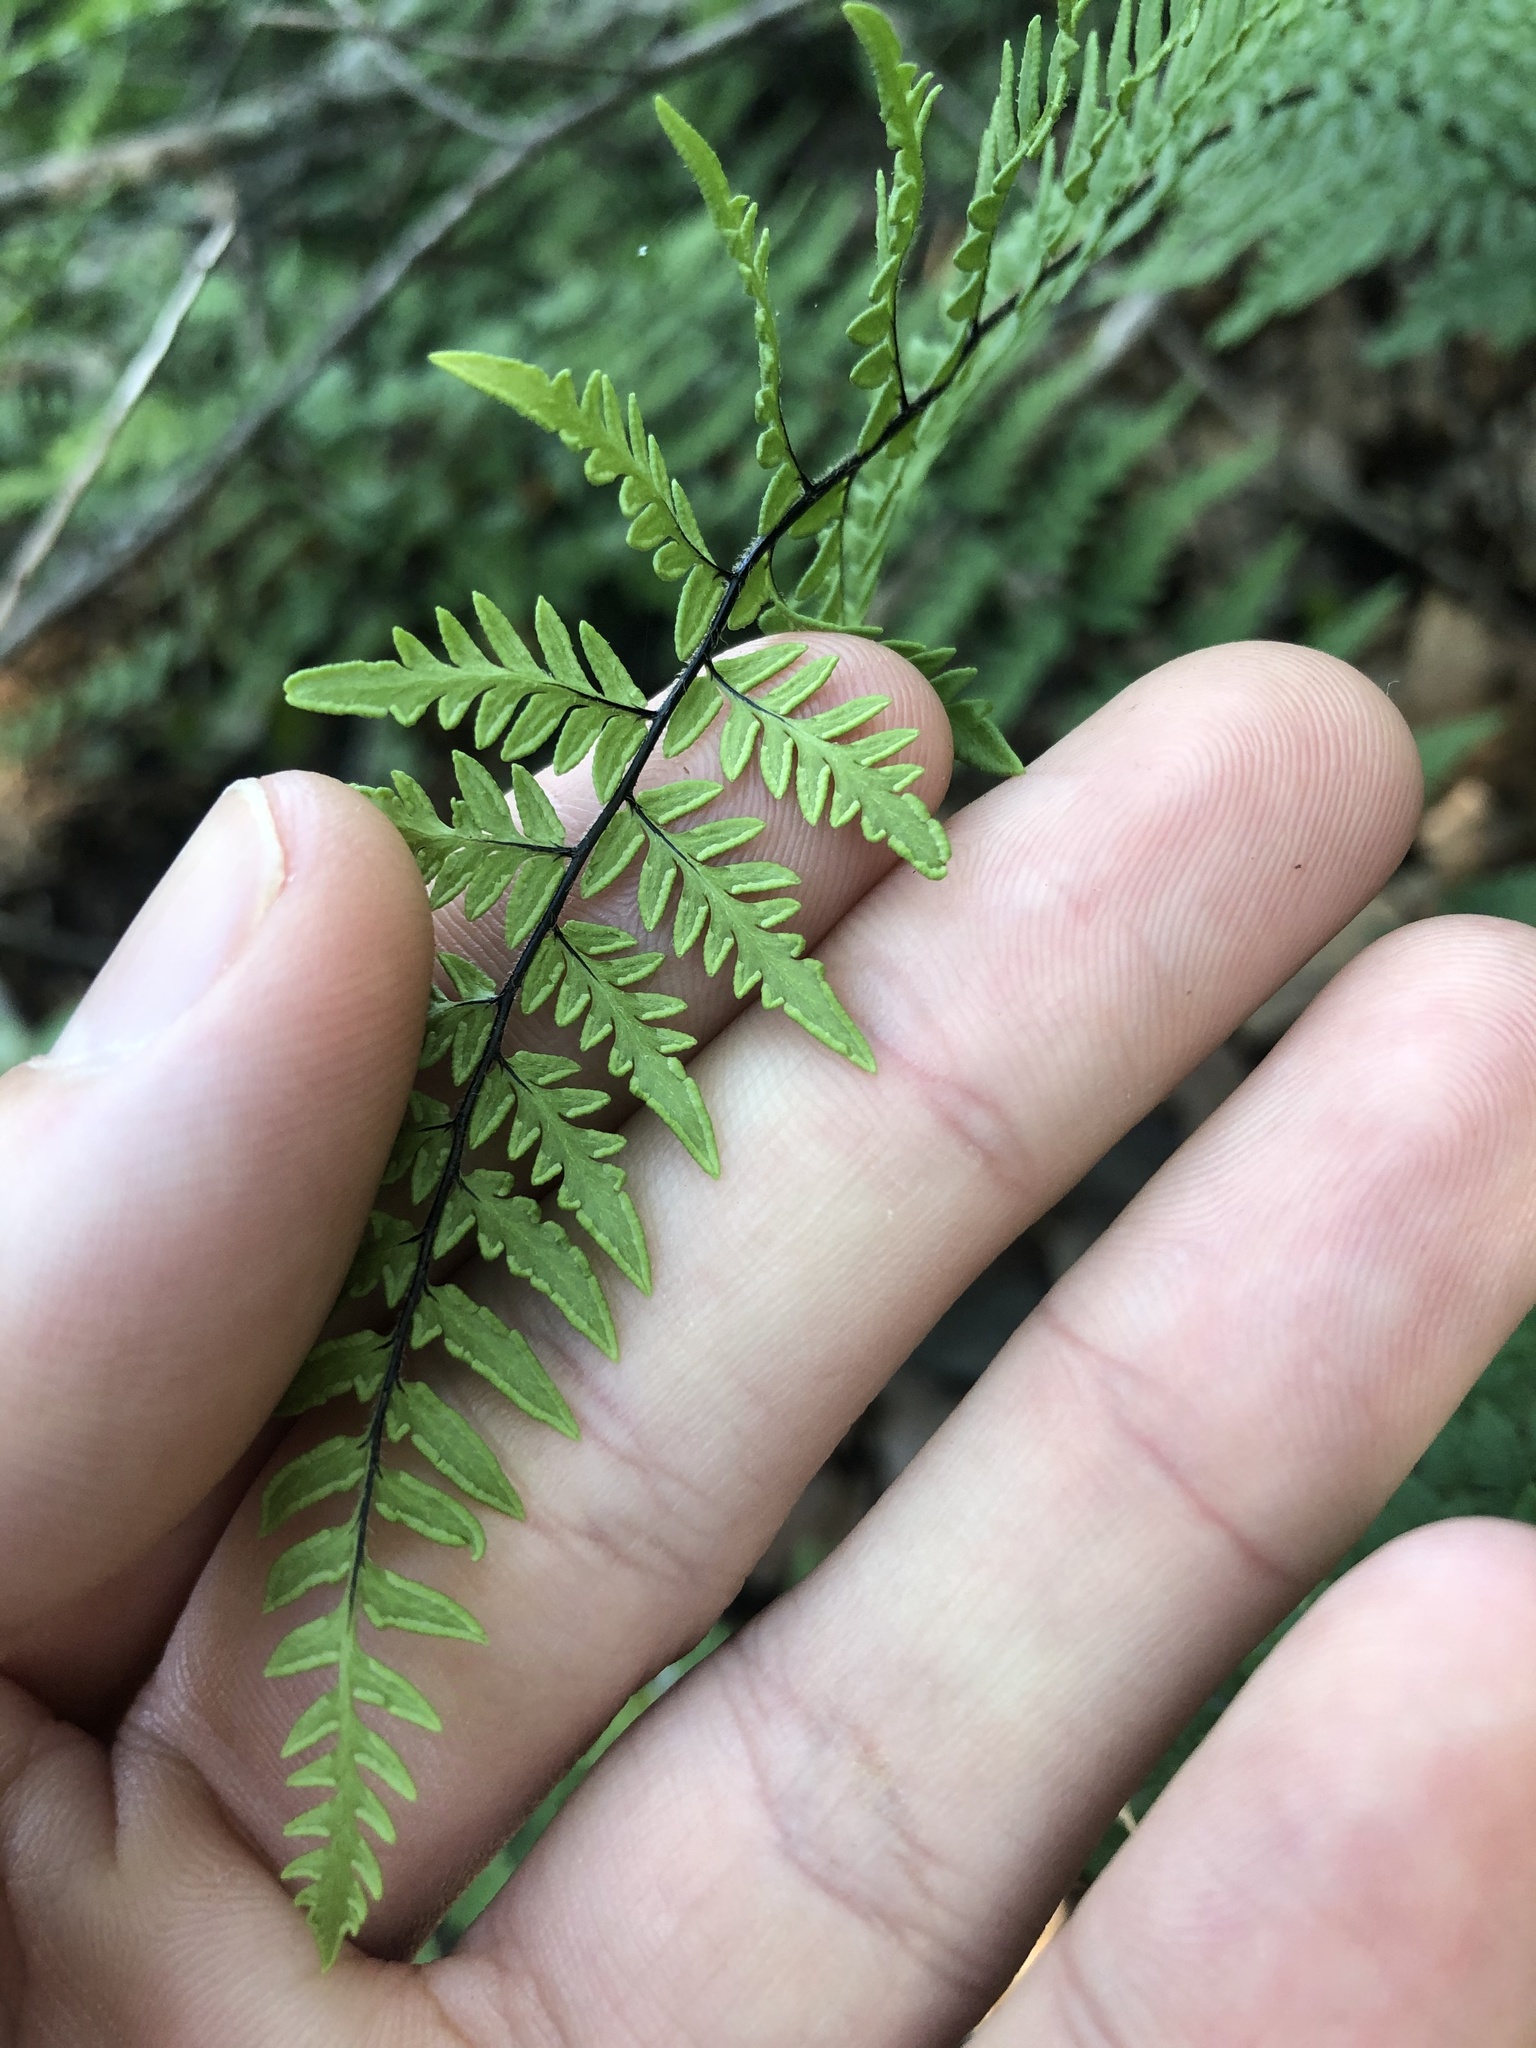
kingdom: Plantae
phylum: Tracheophyta
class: Polypodiopsida
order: Polypodiales
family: Pteridaceae
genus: Myriopteris
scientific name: Myriopteris alabamensis
